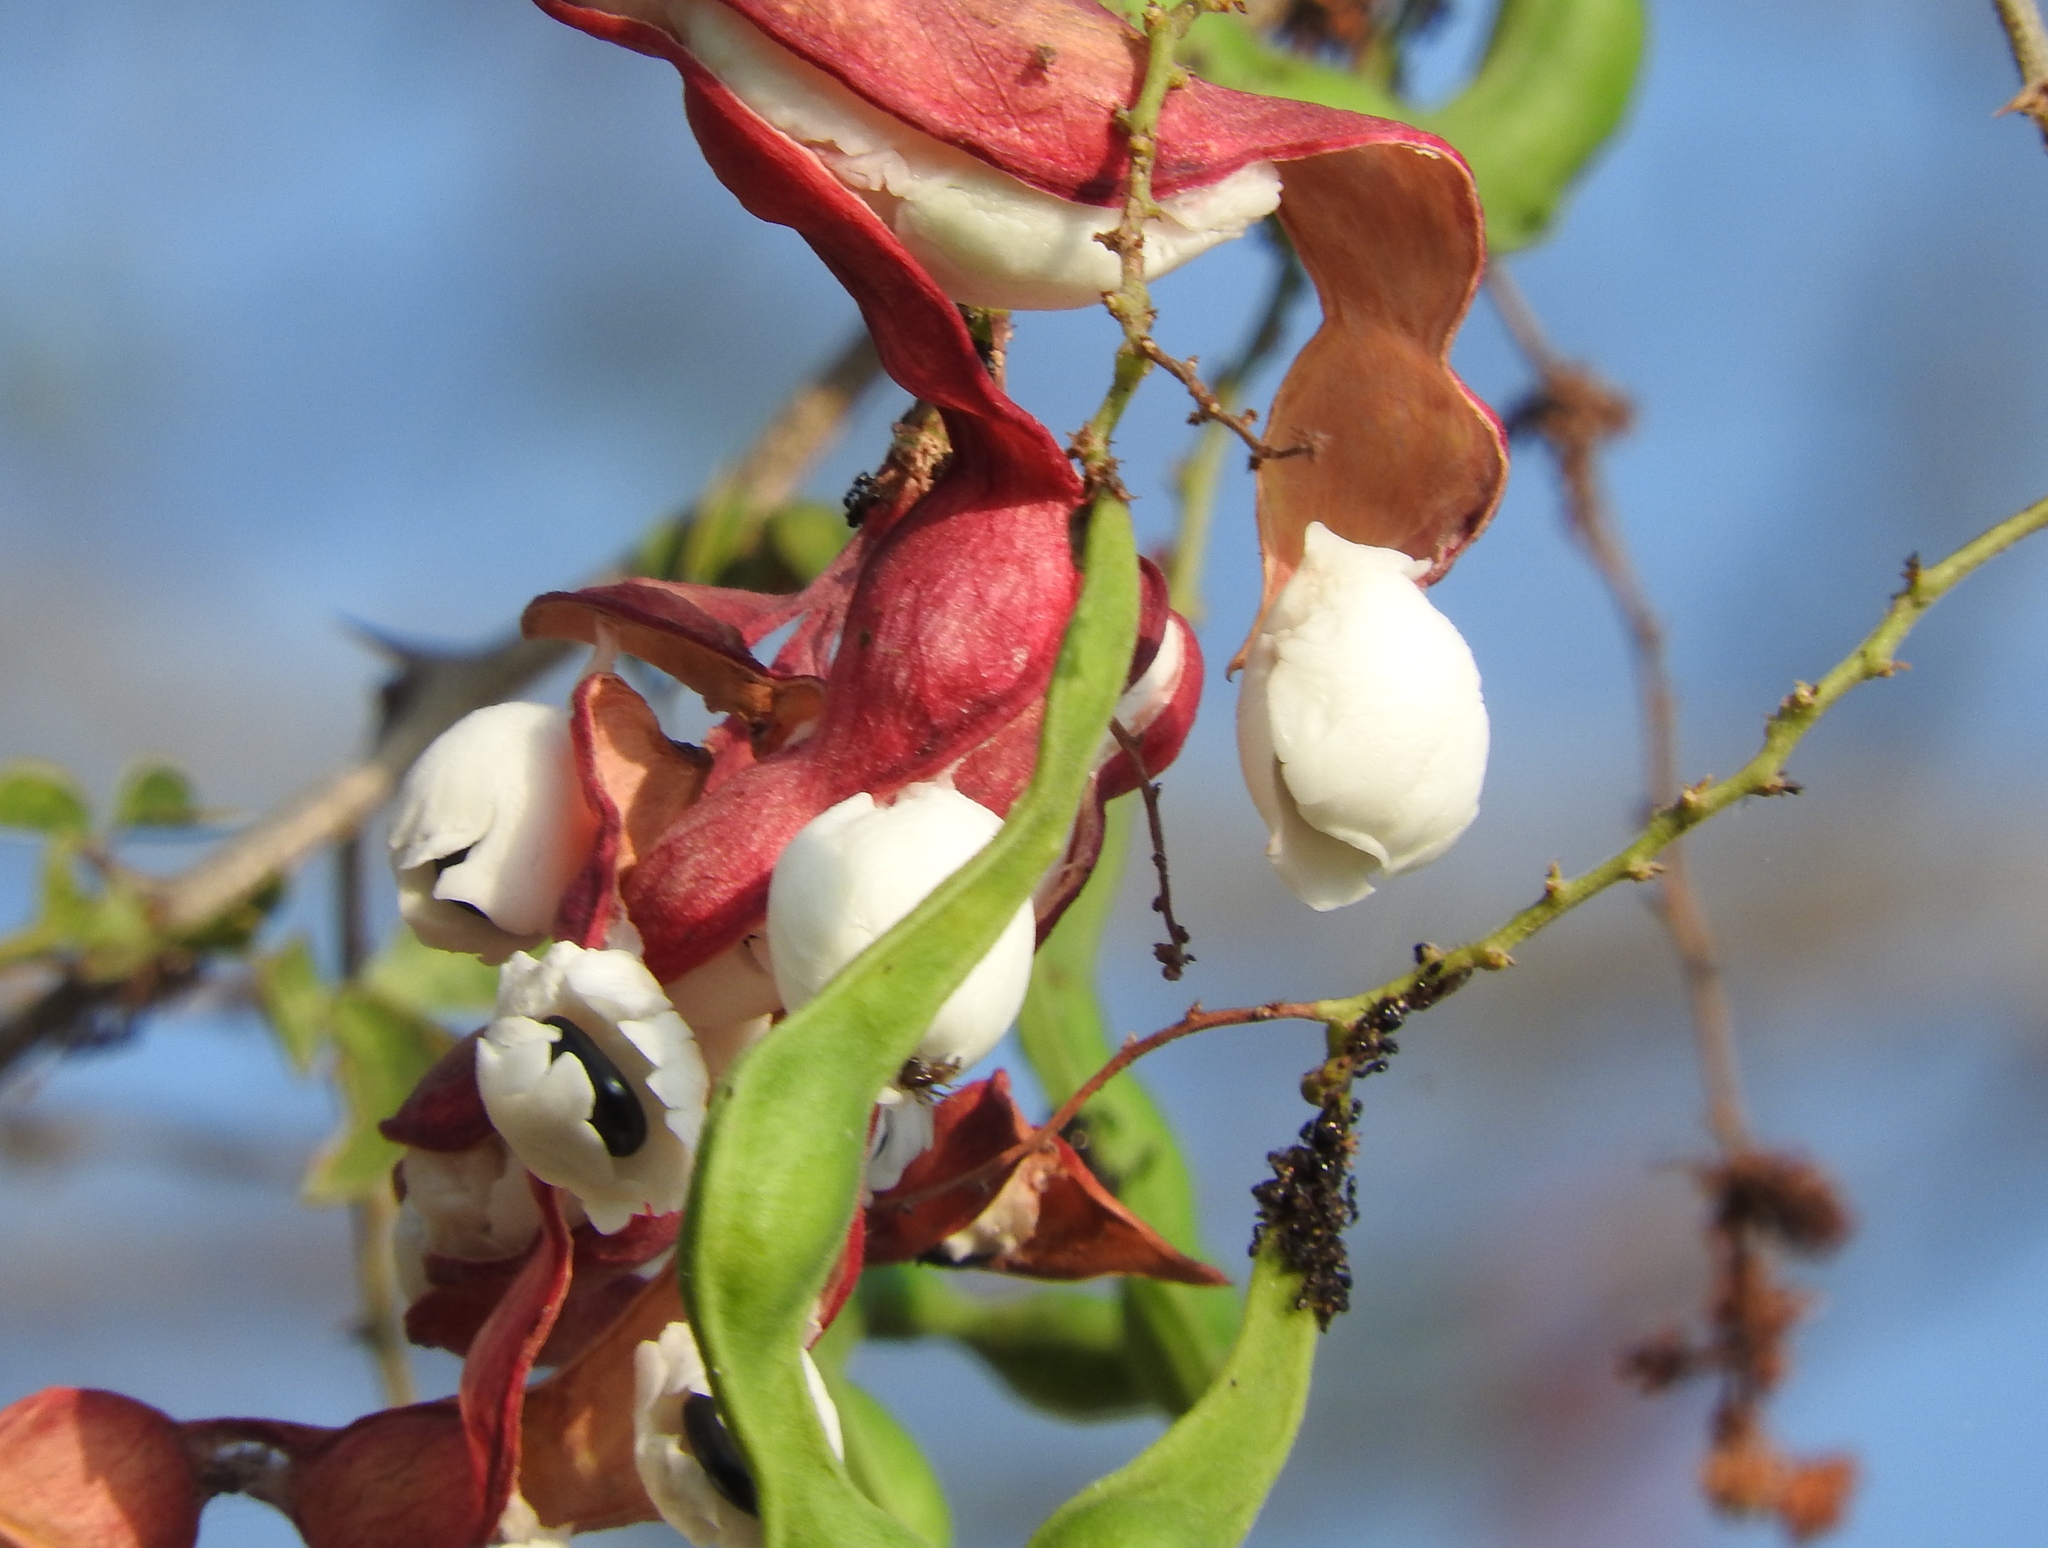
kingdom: Plantae
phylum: Tracheophyta
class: Magnoliopsida
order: Fabales
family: Fabaceae
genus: Pithecellobium
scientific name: Pithecellobium dulce
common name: Monkeypod
